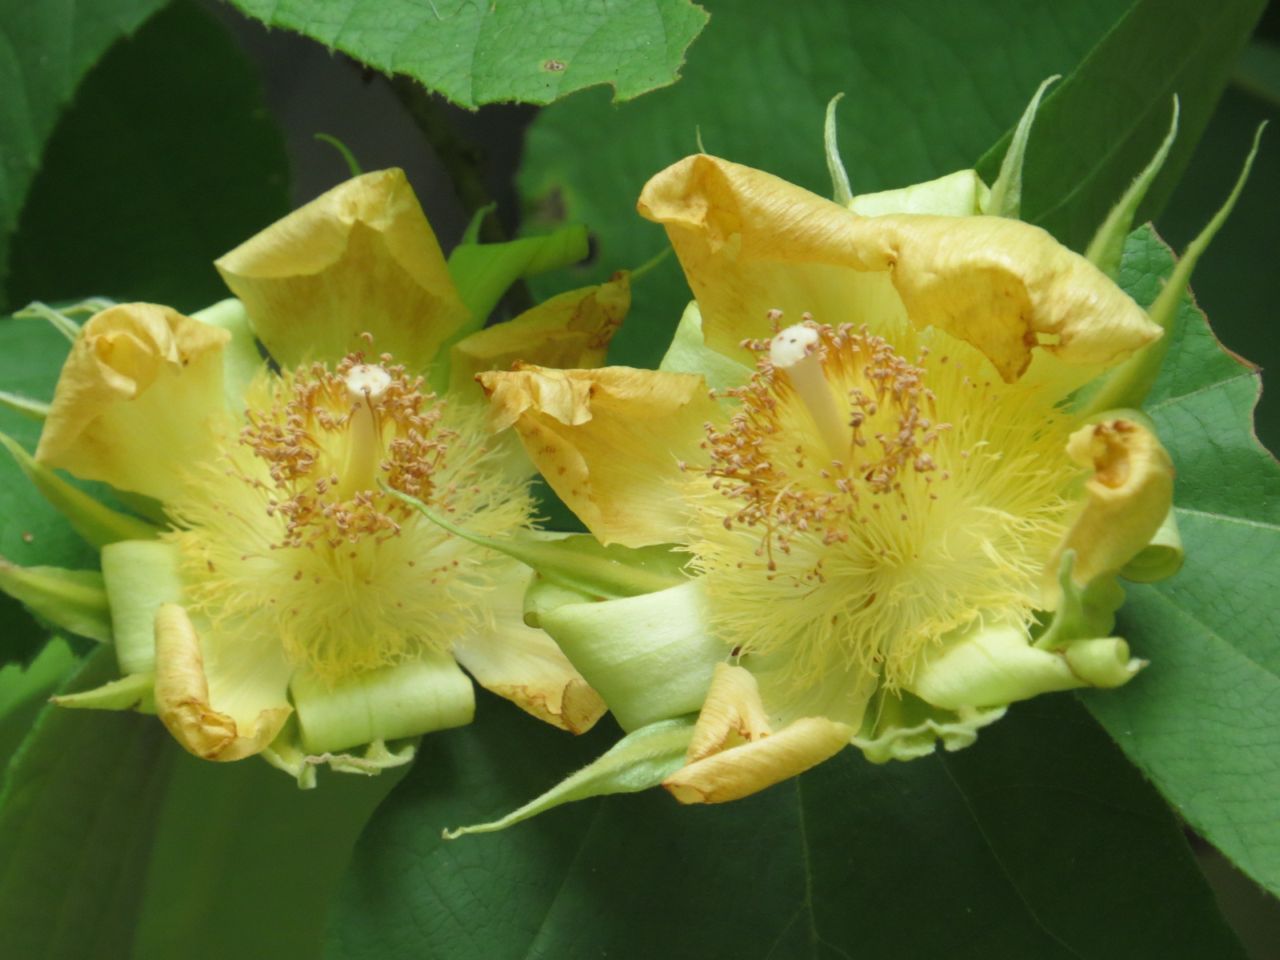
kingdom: Plantae
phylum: Tracheophyta
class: Magnoliopsida
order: Malvales
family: Malvaceae
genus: Luehea
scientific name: Luehea speciosa
